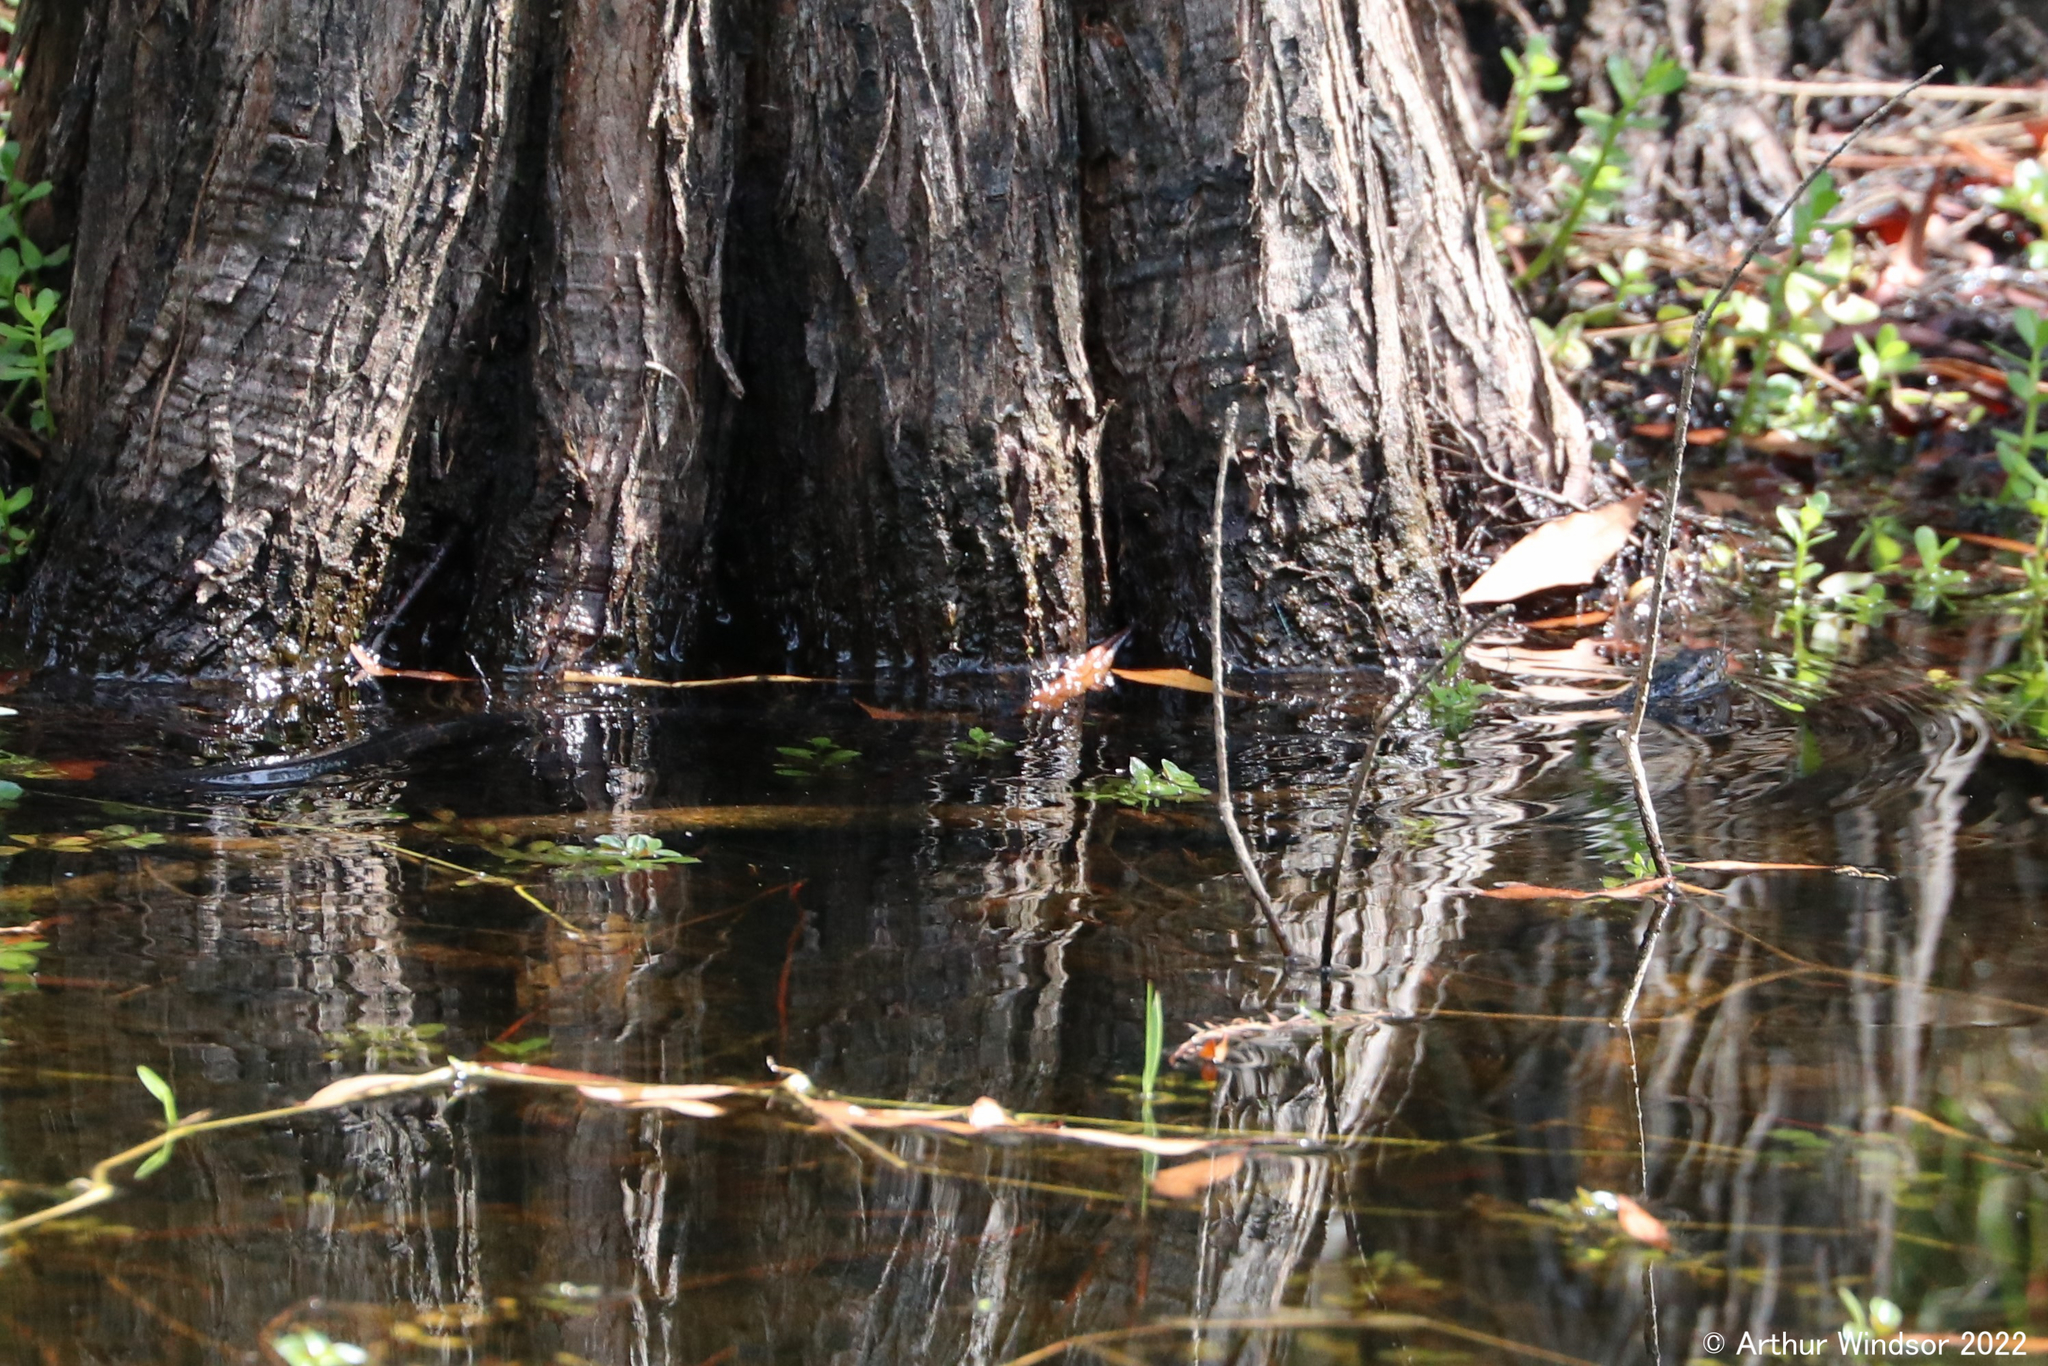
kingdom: Animalia
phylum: Chordata
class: Squamata
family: Colubridae
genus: Nerodia
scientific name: Nerodia fasciata
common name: Southern water snake
